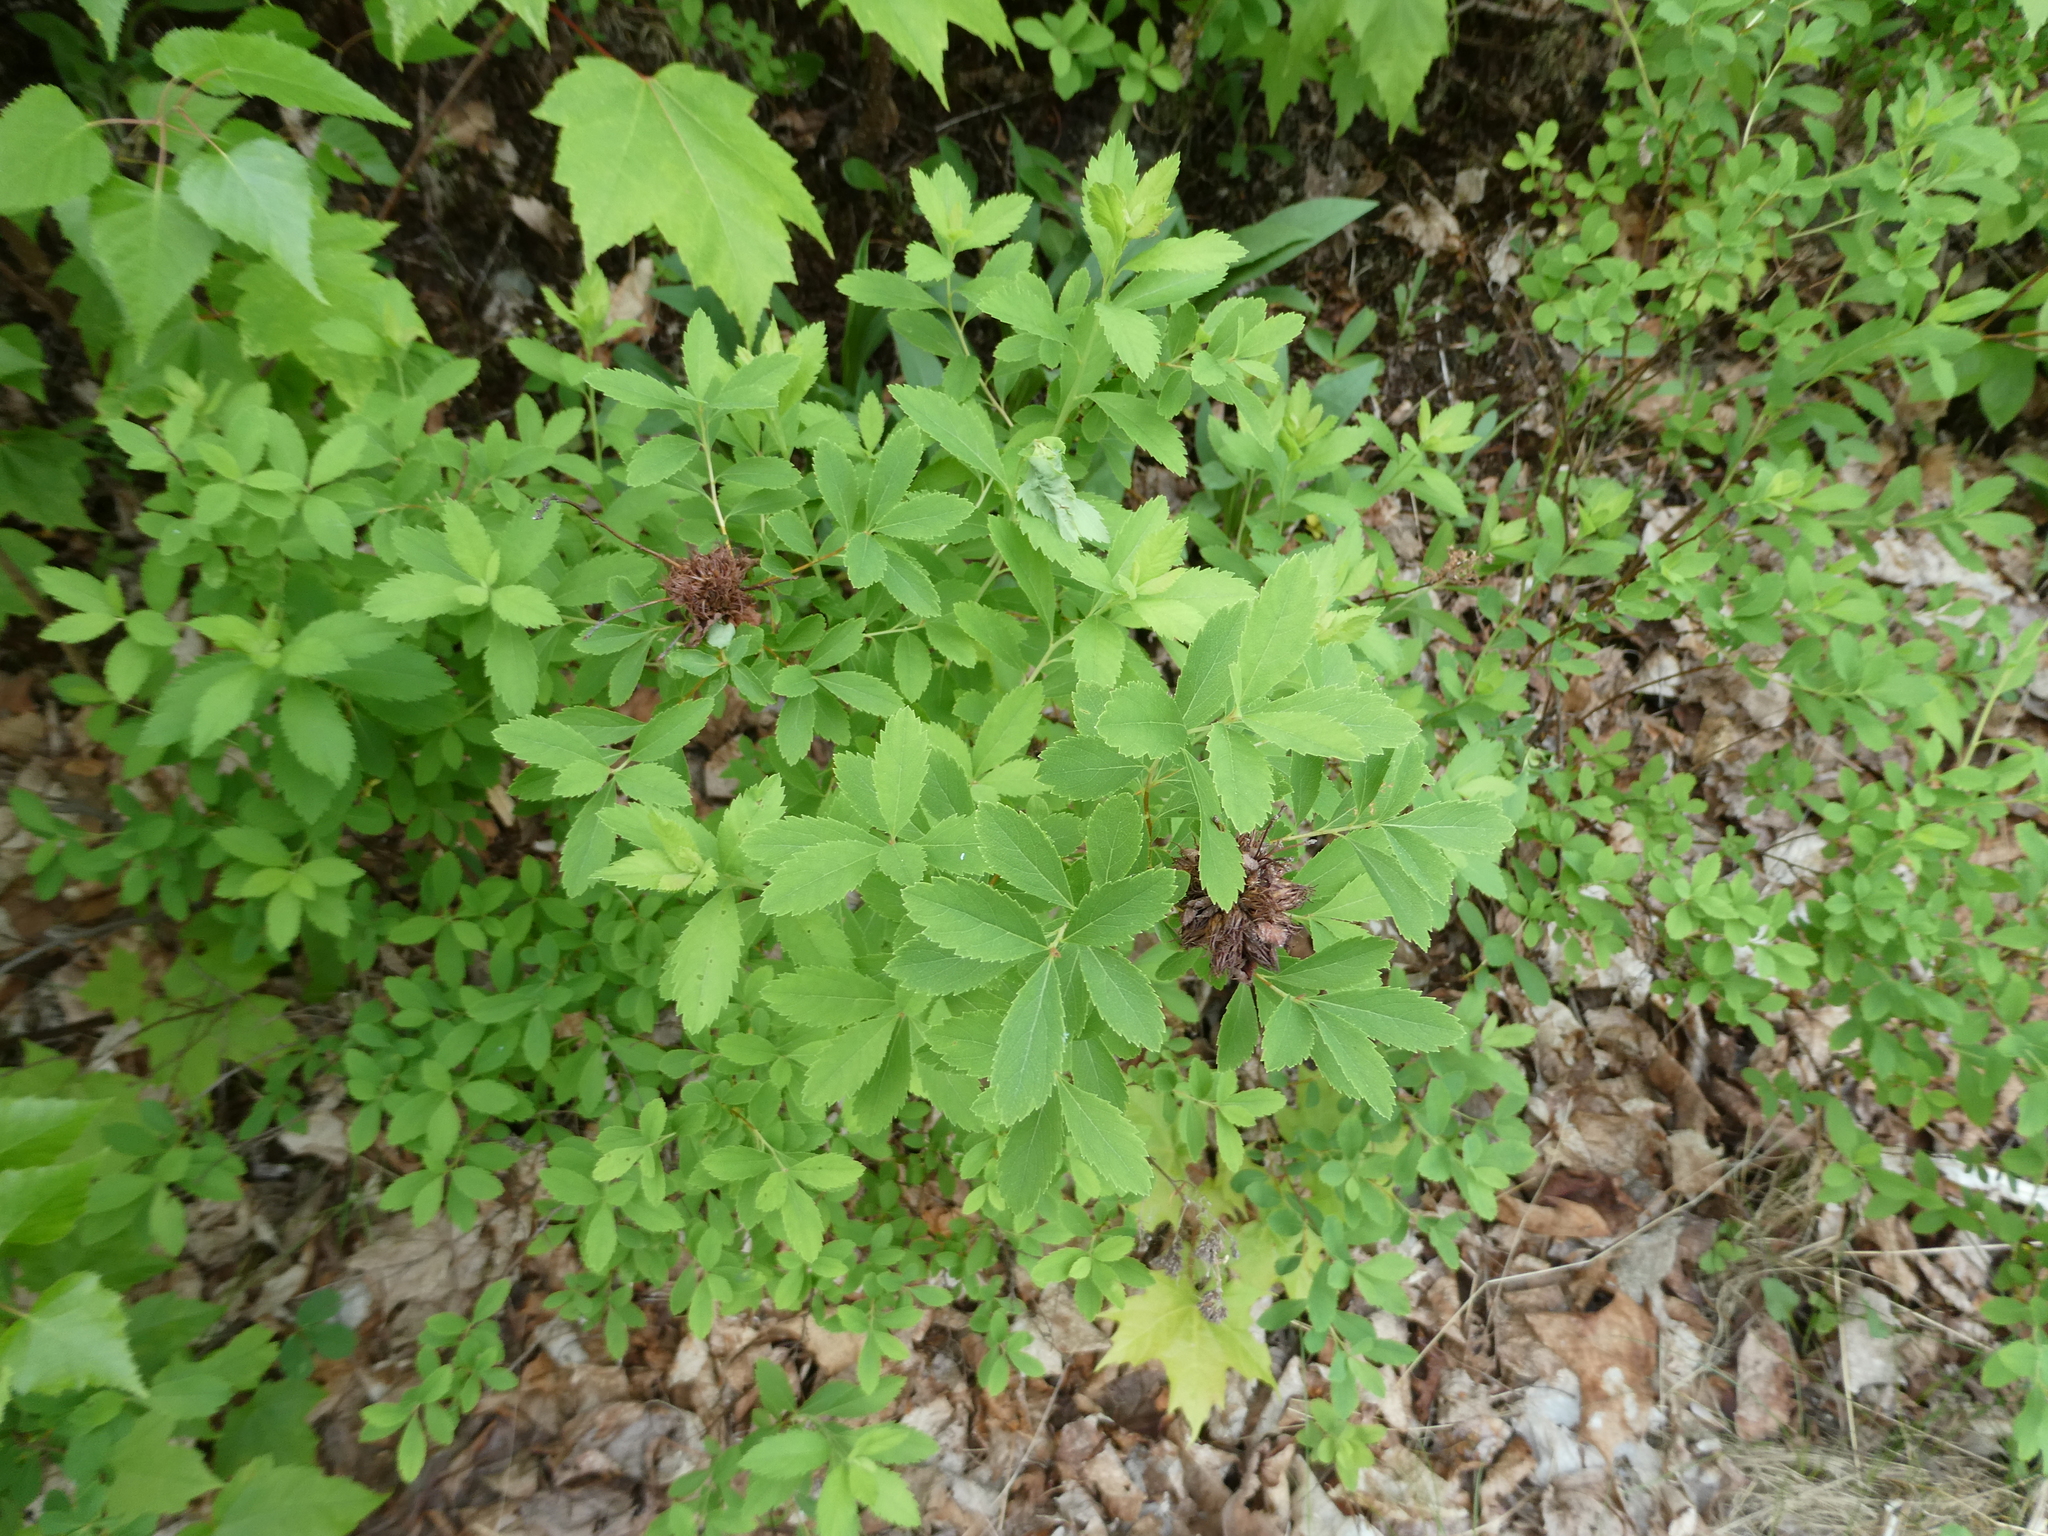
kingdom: Animalia
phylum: Arthropoda
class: Insecta
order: Diptera
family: Cecidomyiidae
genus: Clinodiplosis
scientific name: Clinodiplosis lappa
